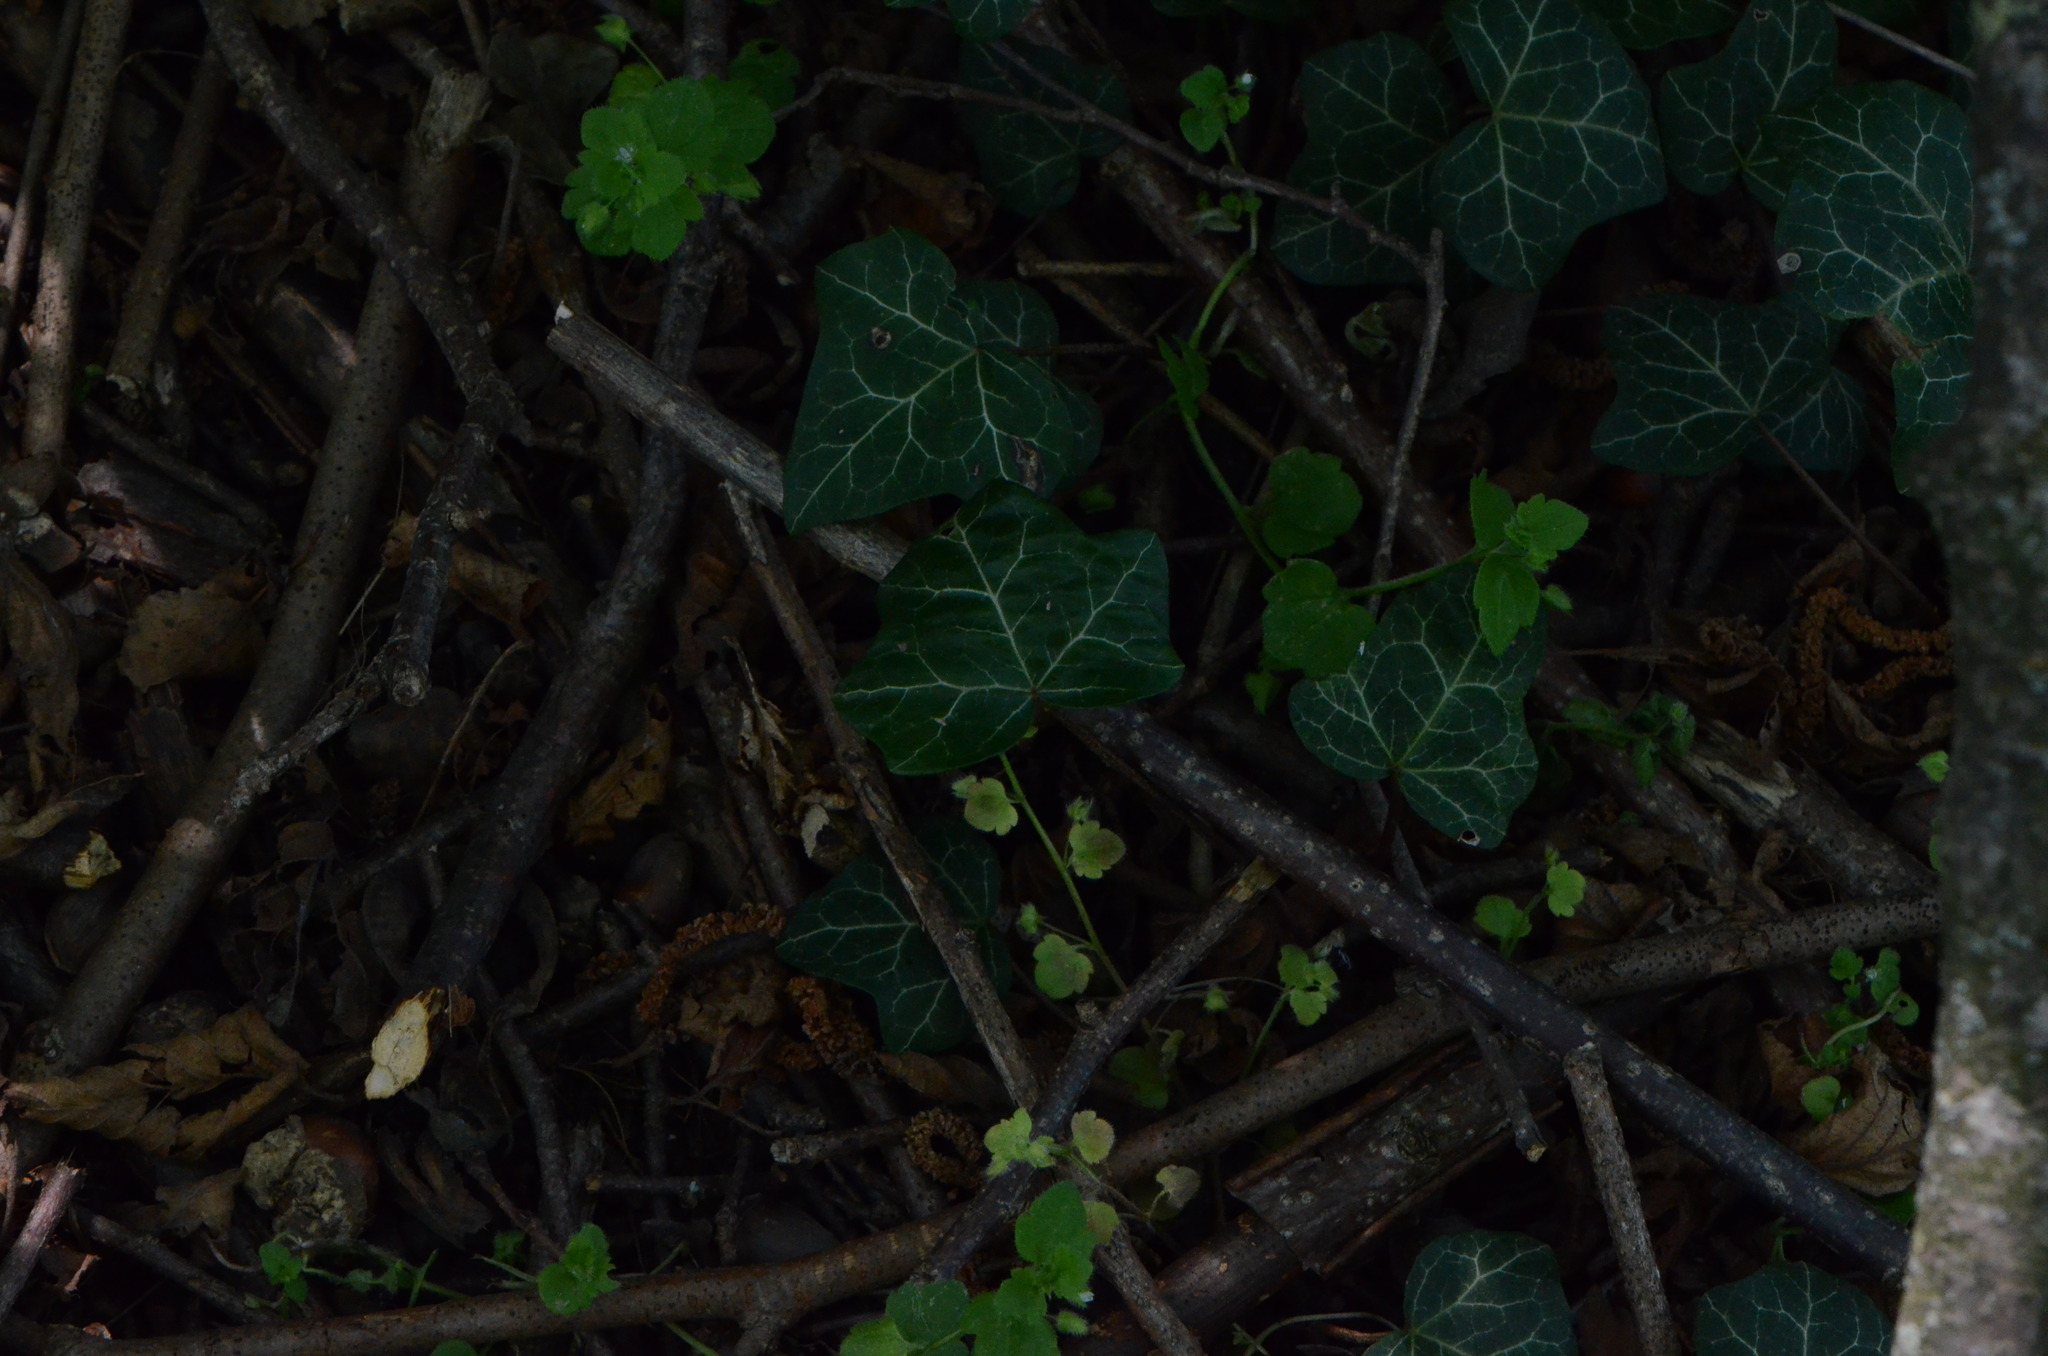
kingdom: Plantae
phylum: Tracheophyta
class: Magnoliopsida
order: Apiales
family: Araliaceae
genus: Hedera
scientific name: Hedera helix
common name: Ivy
